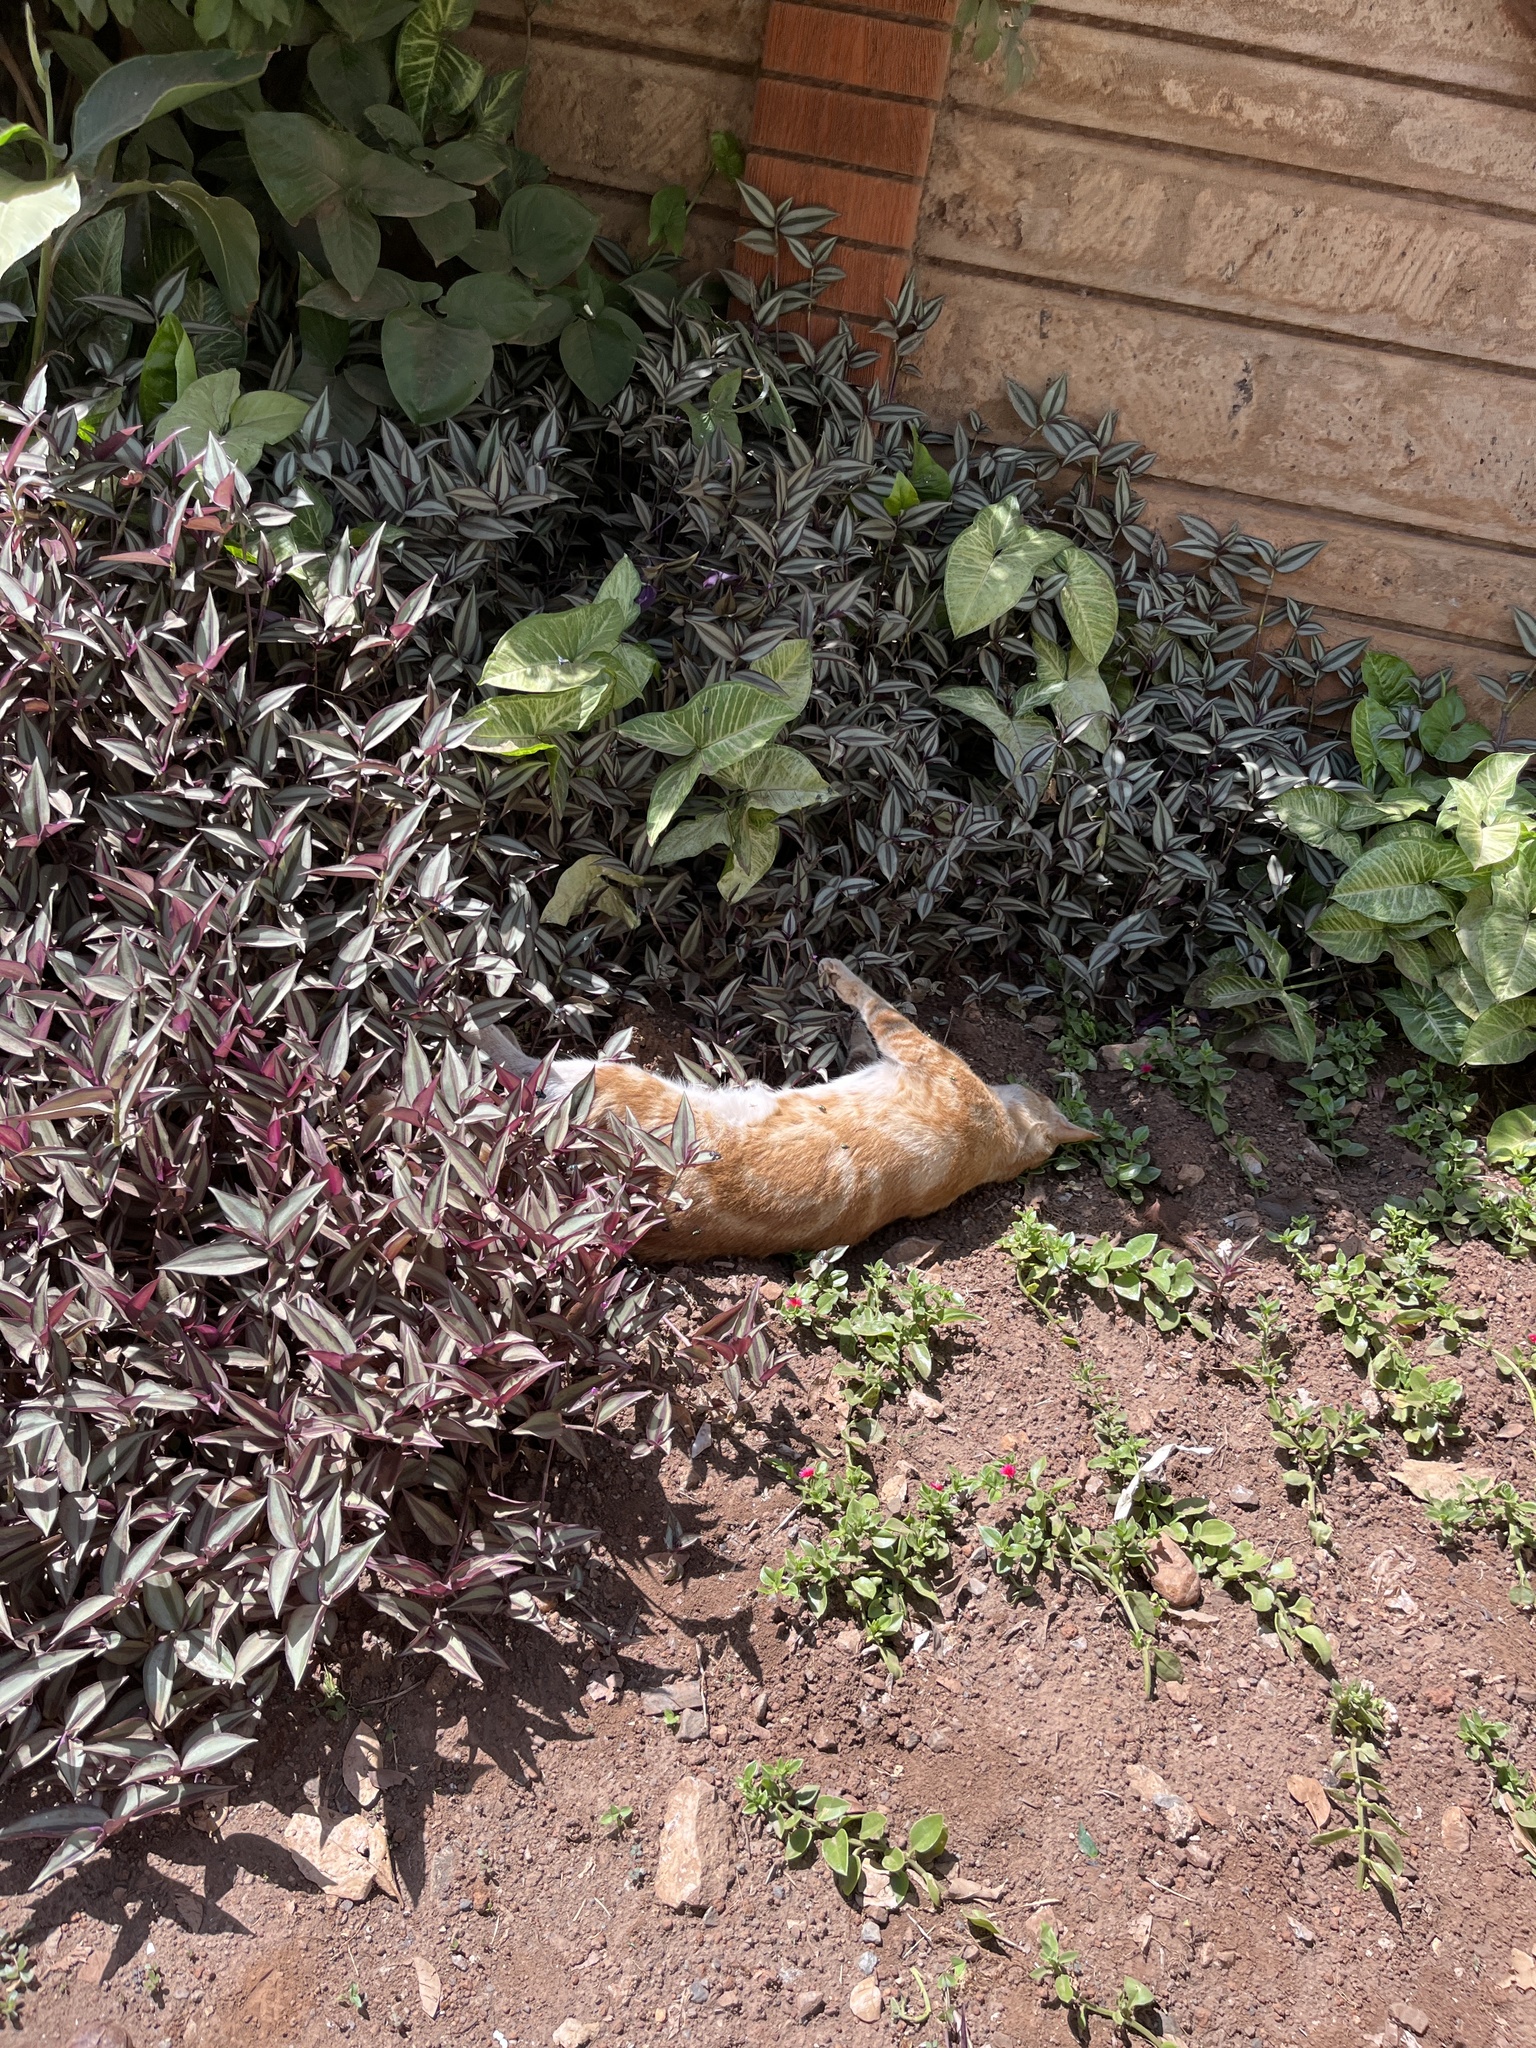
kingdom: Animalia
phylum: Chordata
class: Mammalia
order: Carnivora
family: Felidae
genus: Felis
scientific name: Felis catus
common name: Domestic cat
